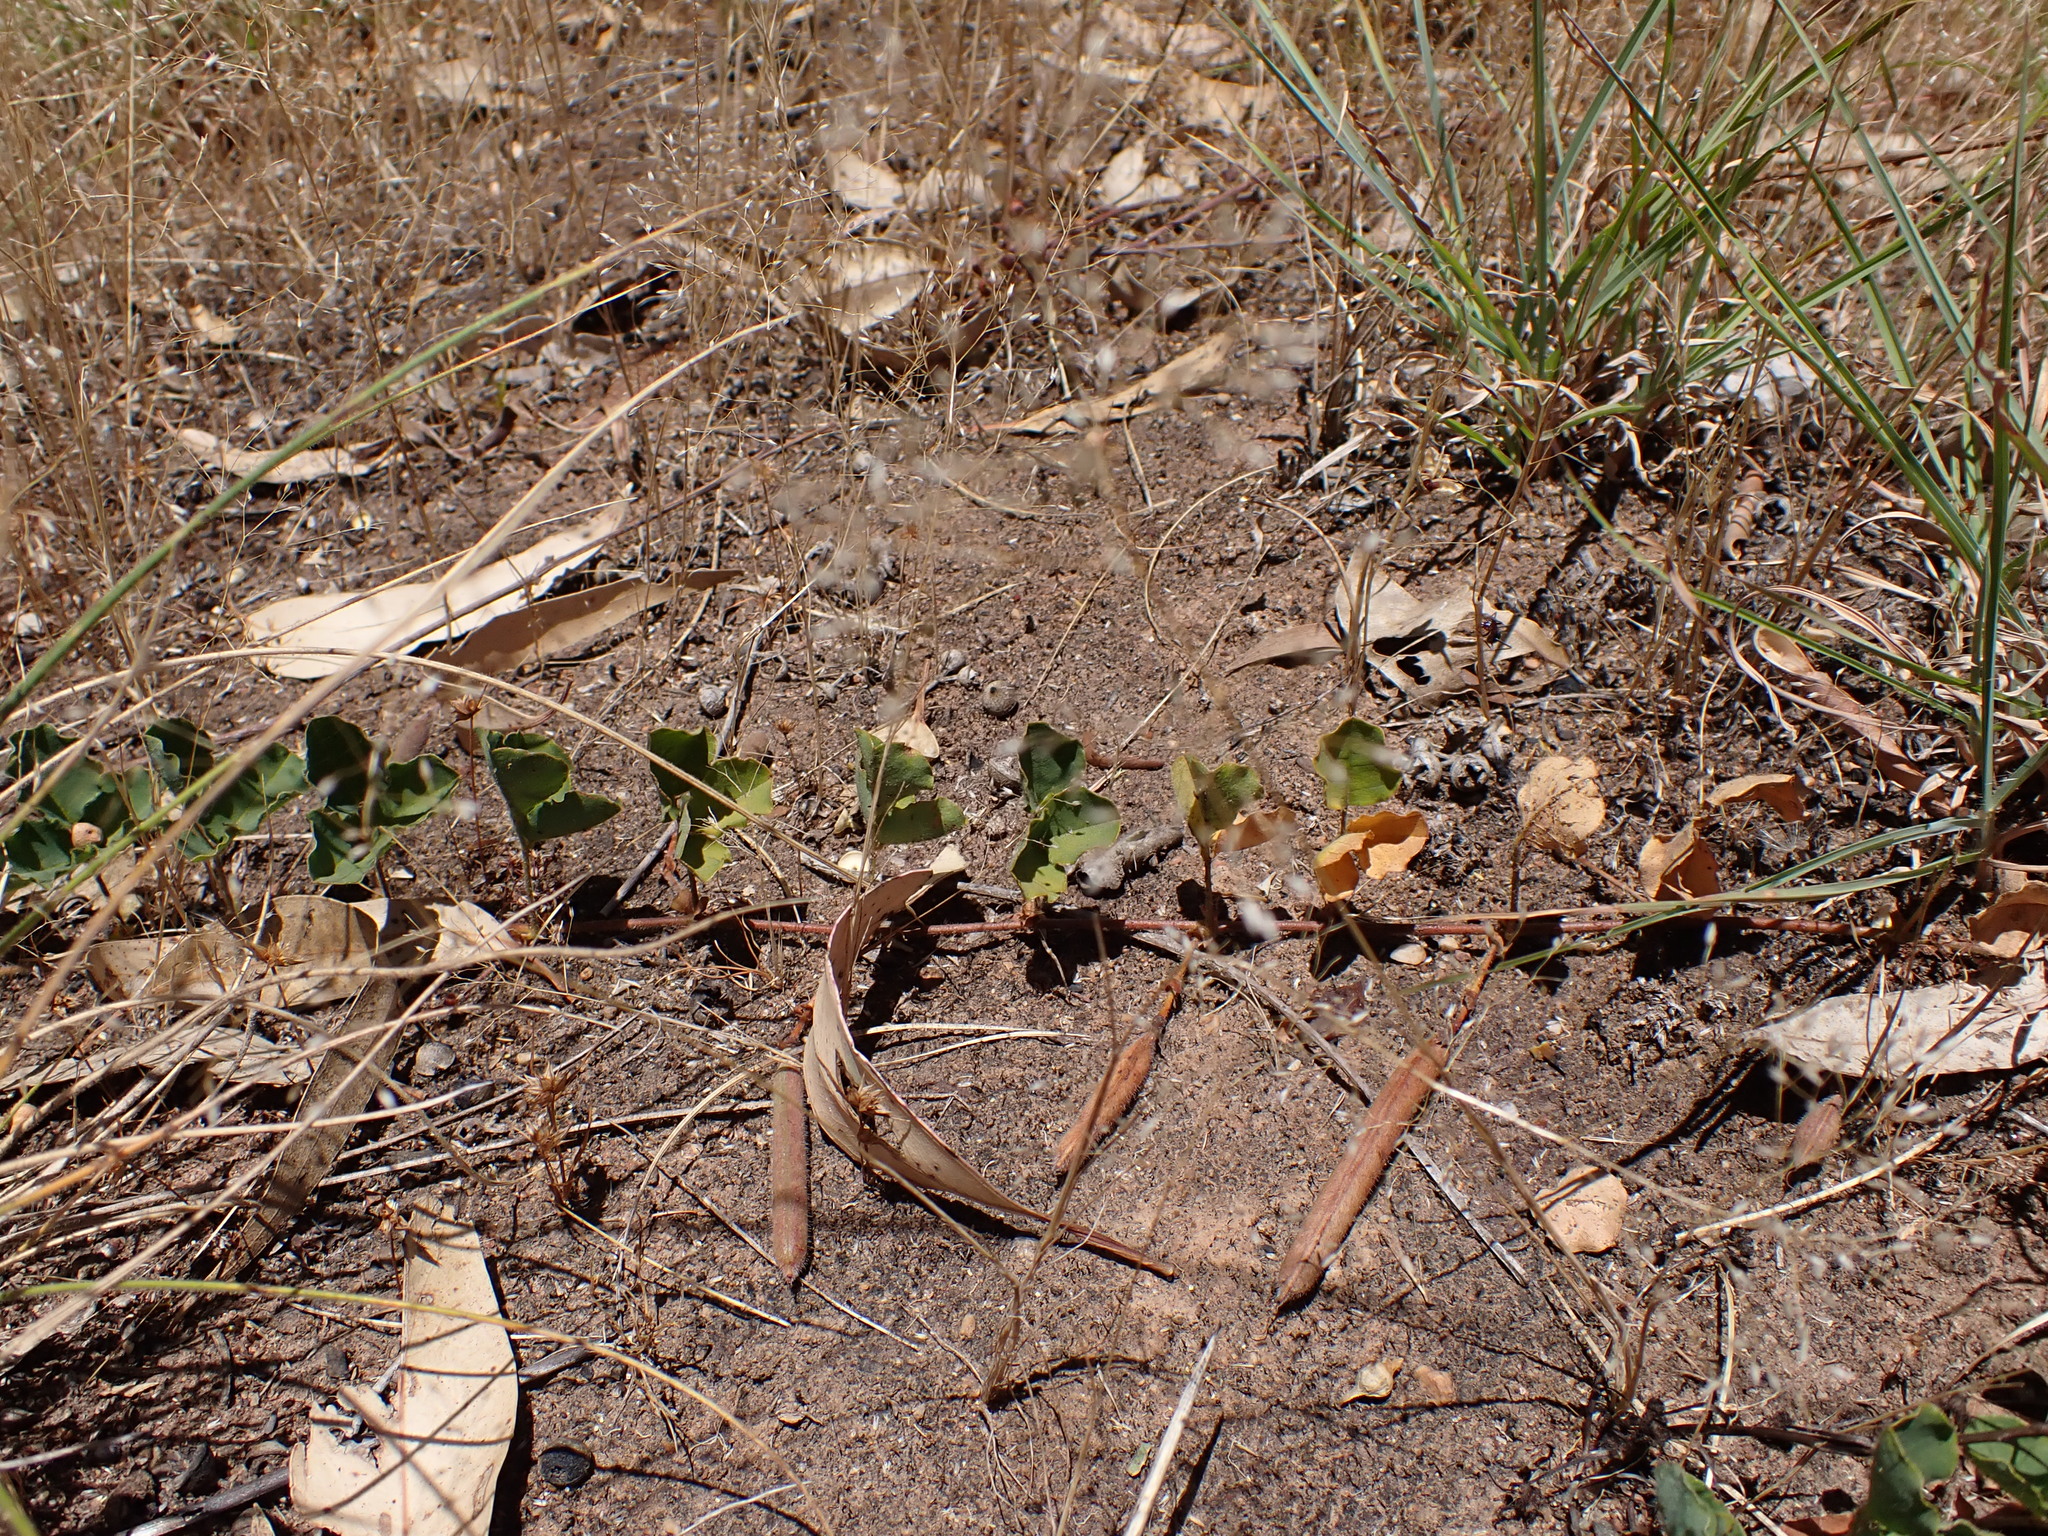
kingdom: Plantae
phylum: Tracheophyta
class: Magnoliopsida
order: Fabales
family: Fabaceae
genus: Kennedia
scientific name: Kennedia prostrata
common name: Running-postman
